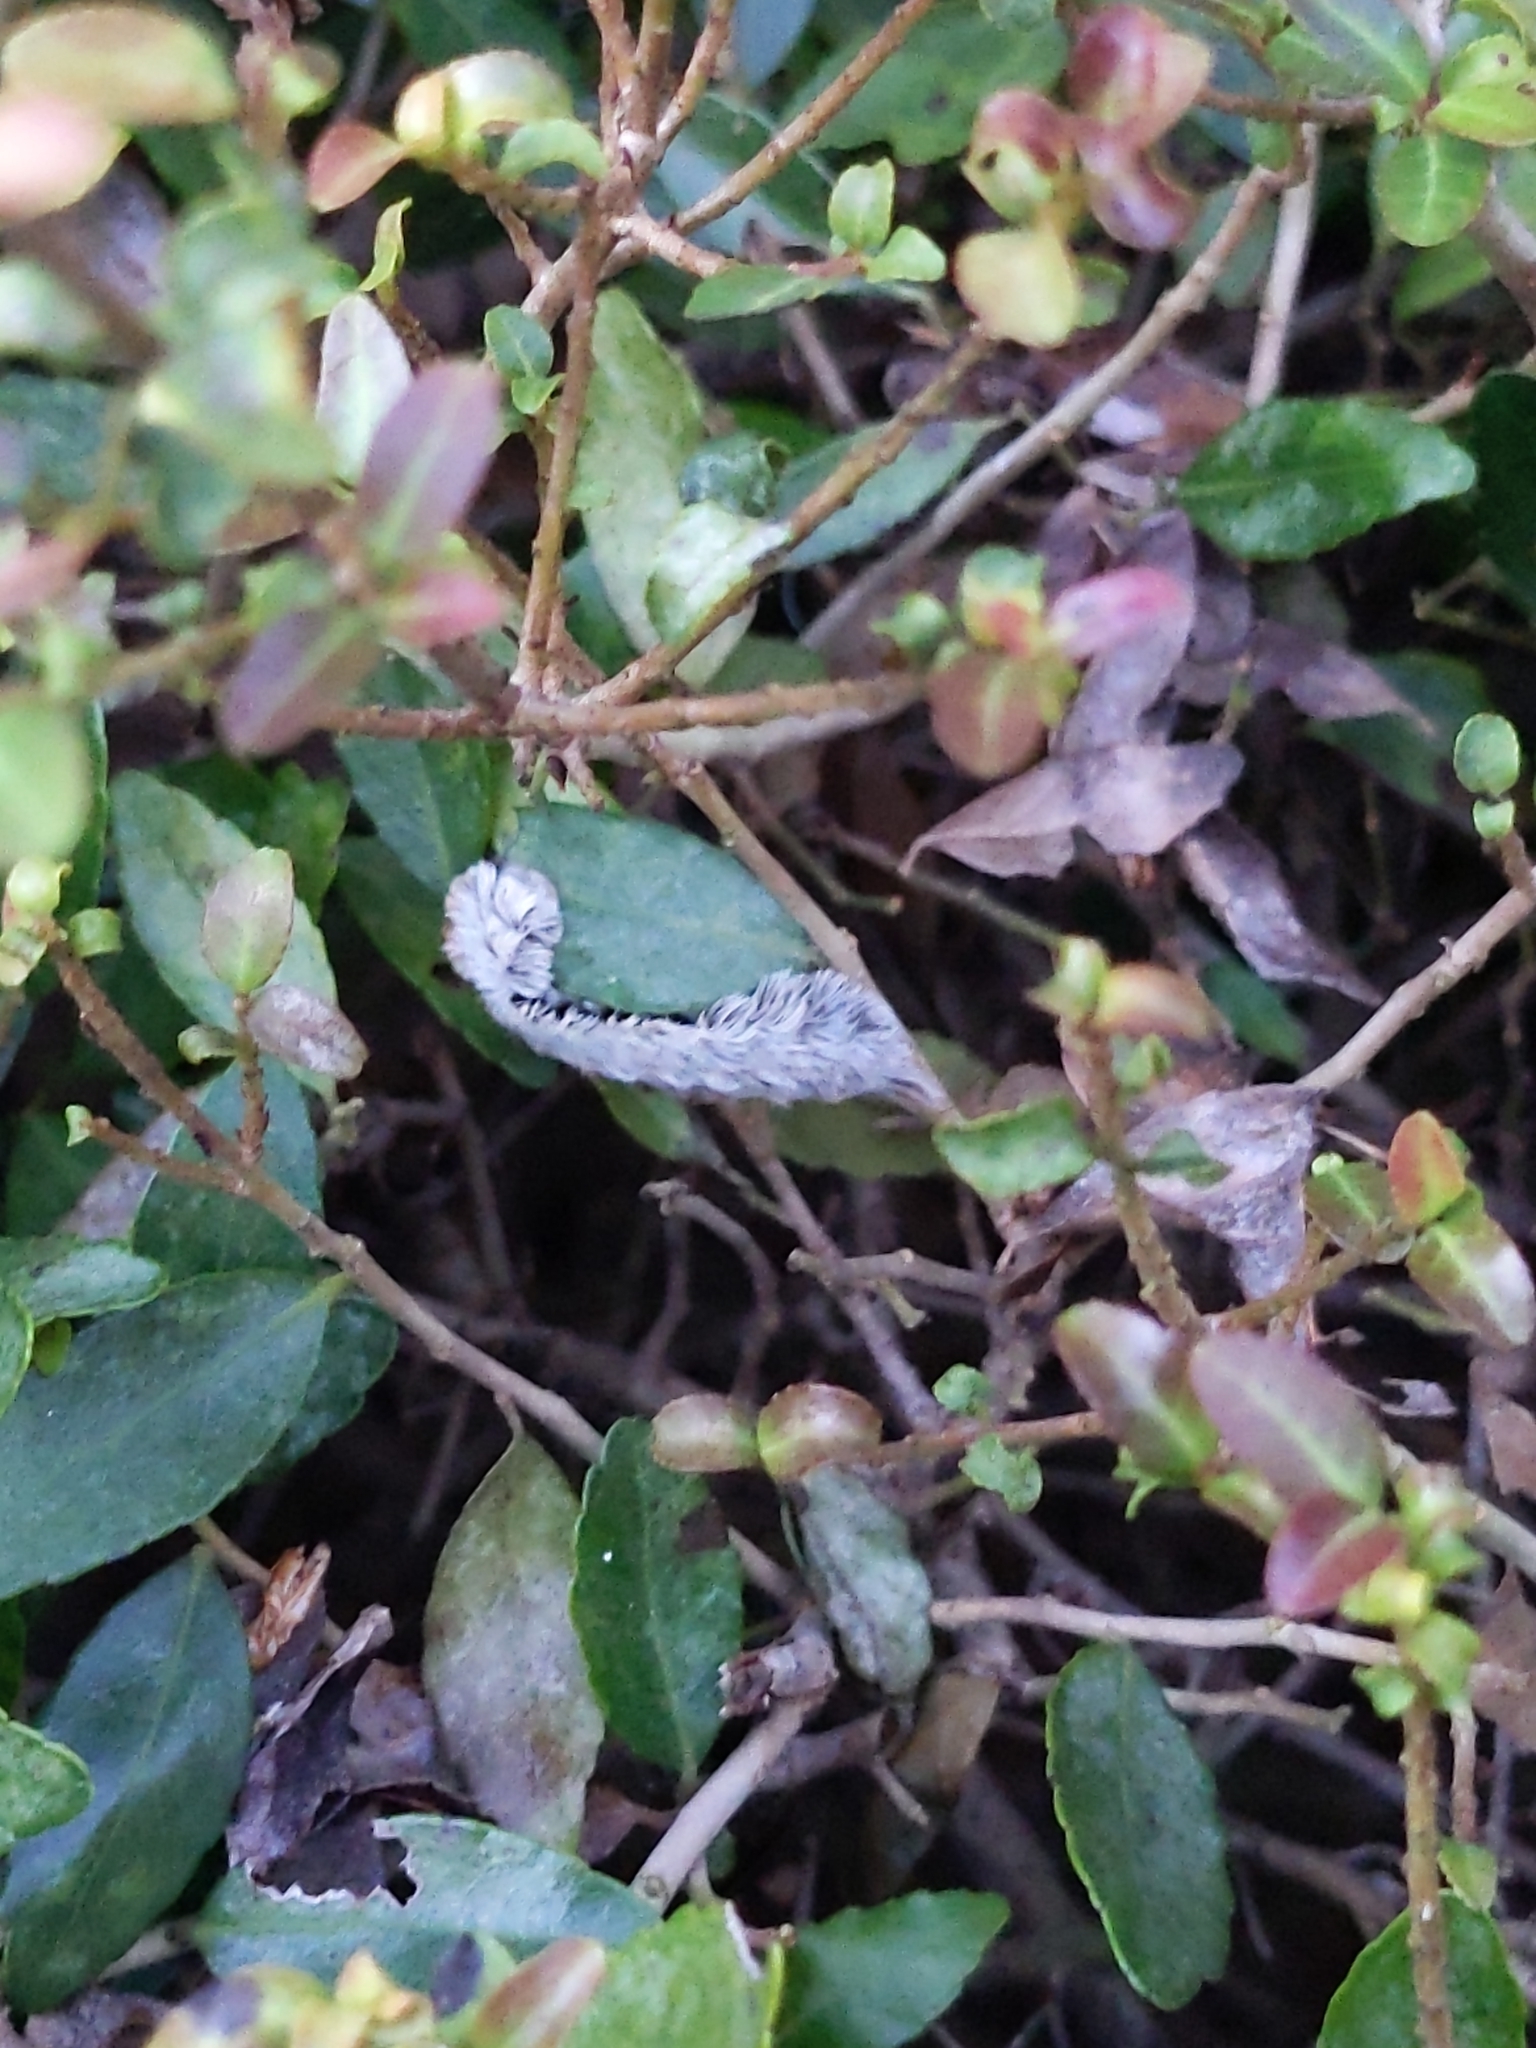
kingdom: Animalia
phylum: Arthropoda
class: Insecta
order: Lepidoptera
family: Megalopygidae
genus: Megalopyge
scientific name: Megalopyge opercularis
